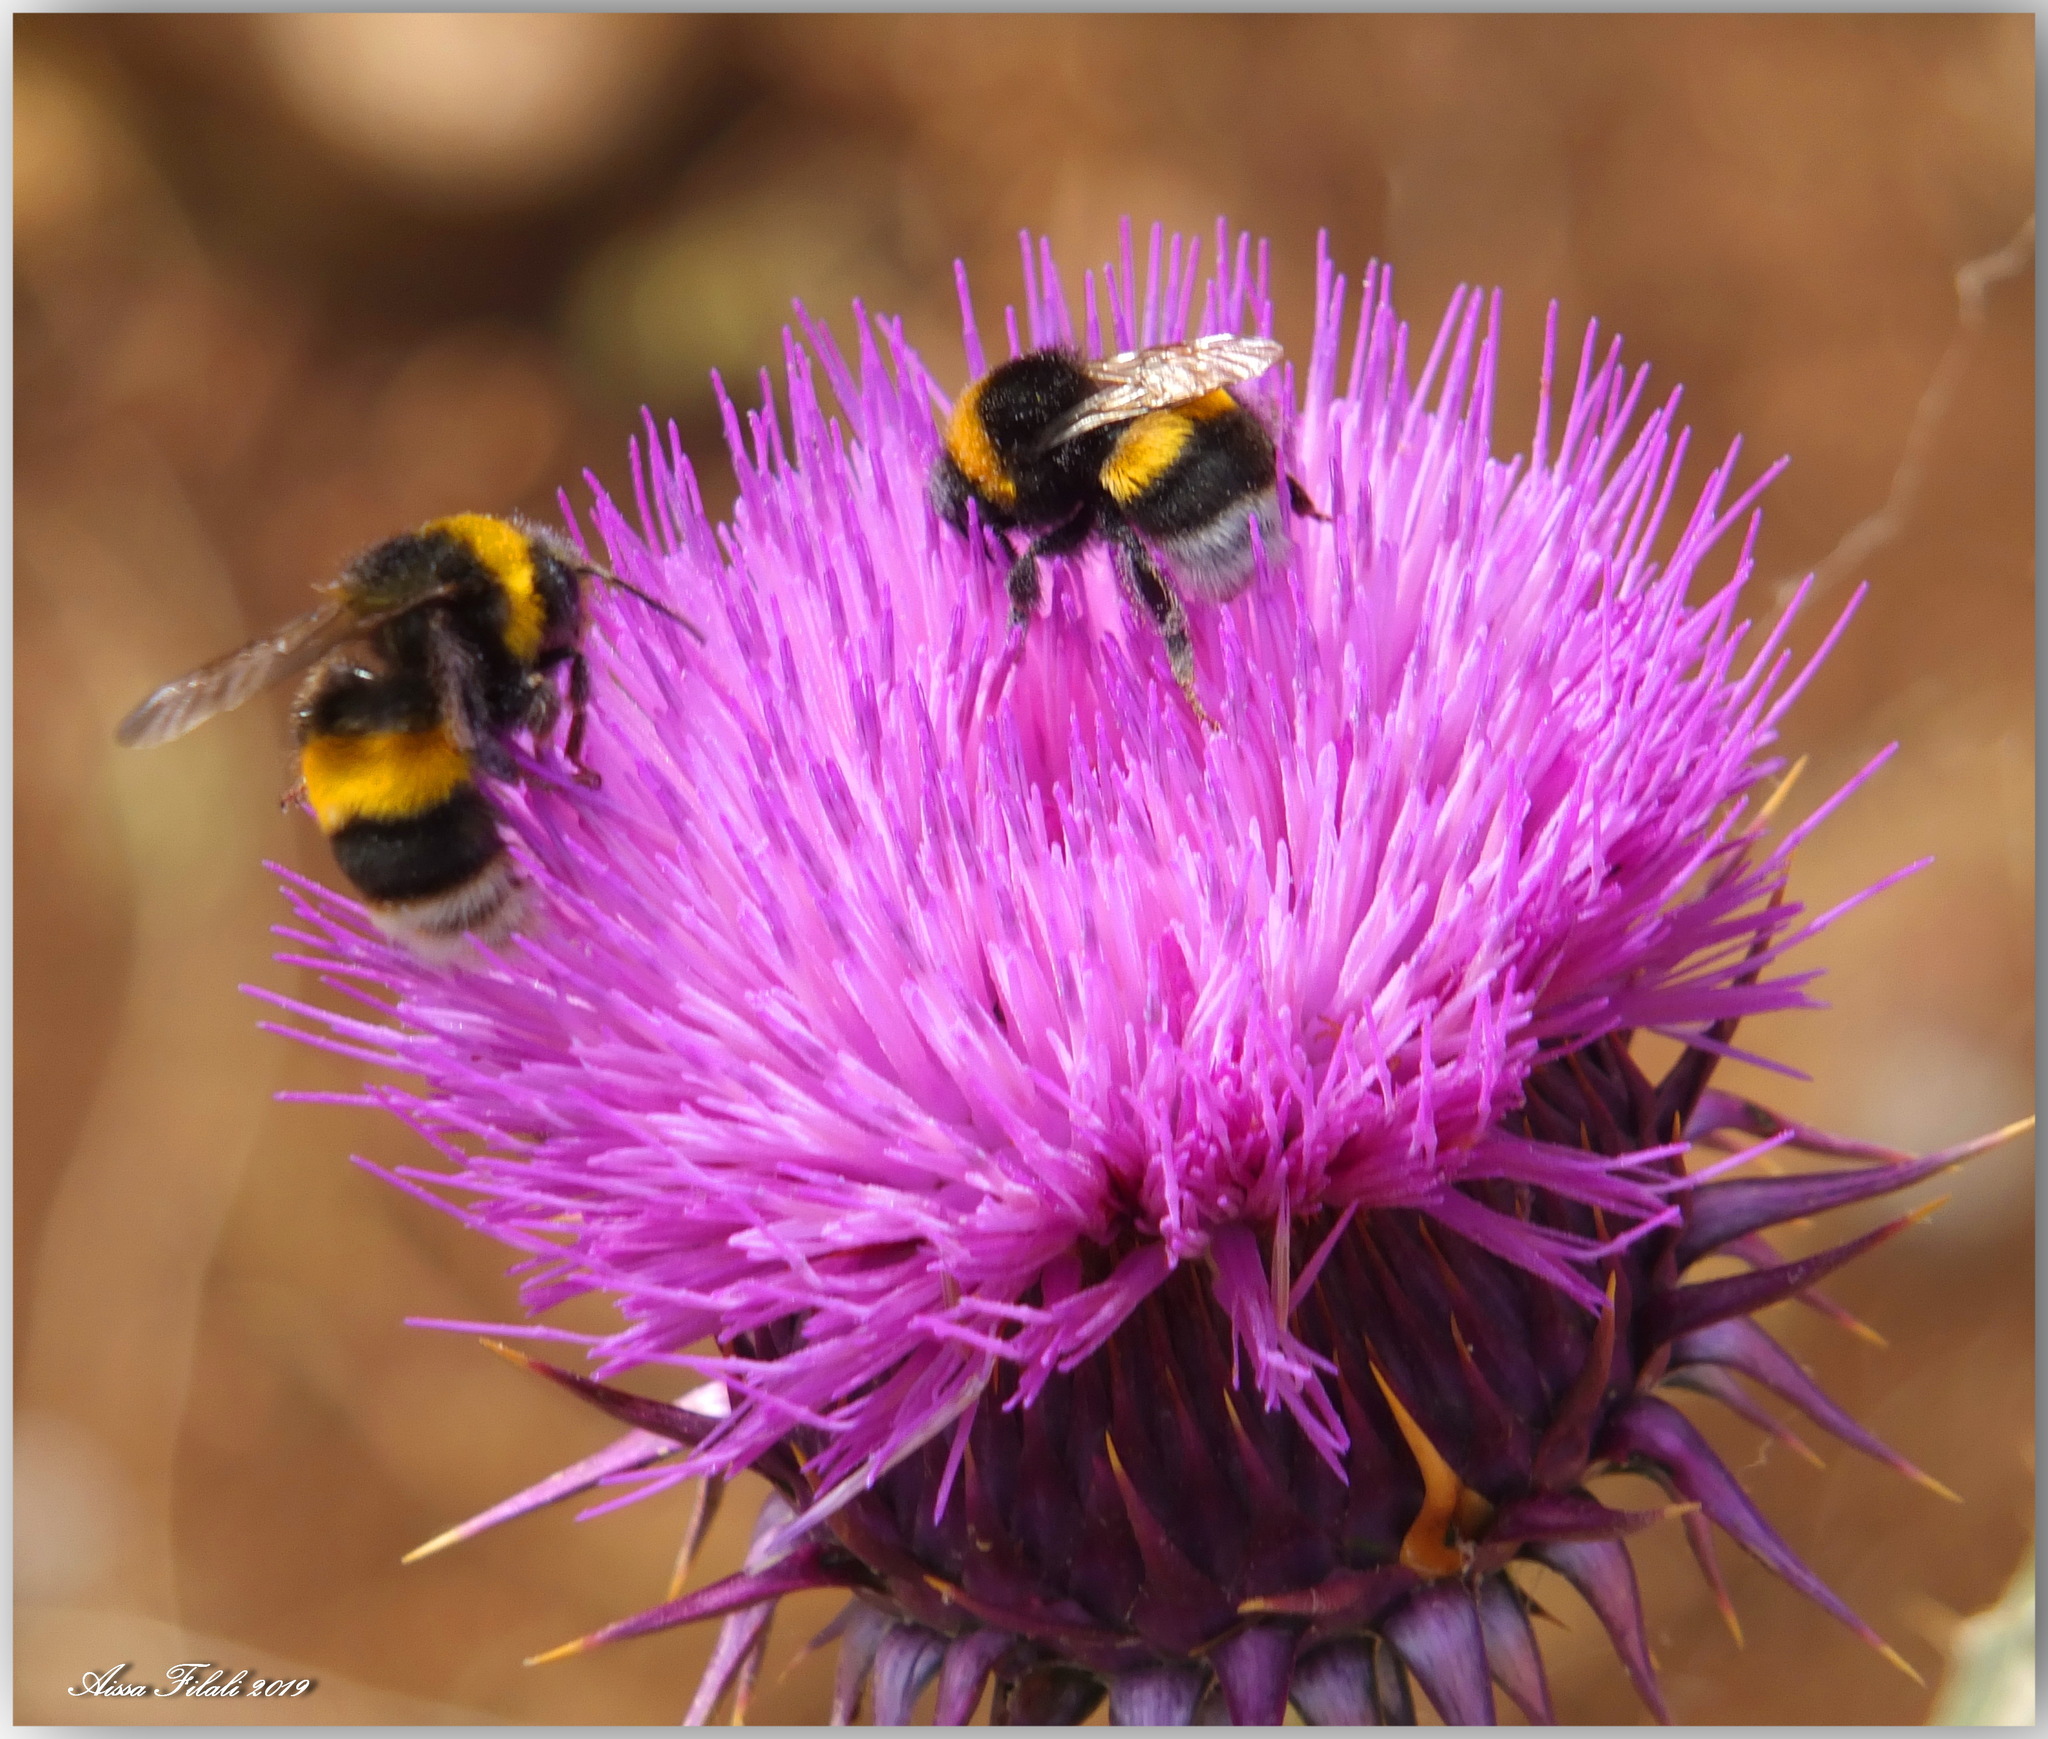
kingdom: Animalia
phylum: Arthropoda
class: Insecta
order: Hymenoptera
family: Apidae
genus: Bombus
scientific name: Bombus terrestris
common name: Buff-tailed bumblebee
